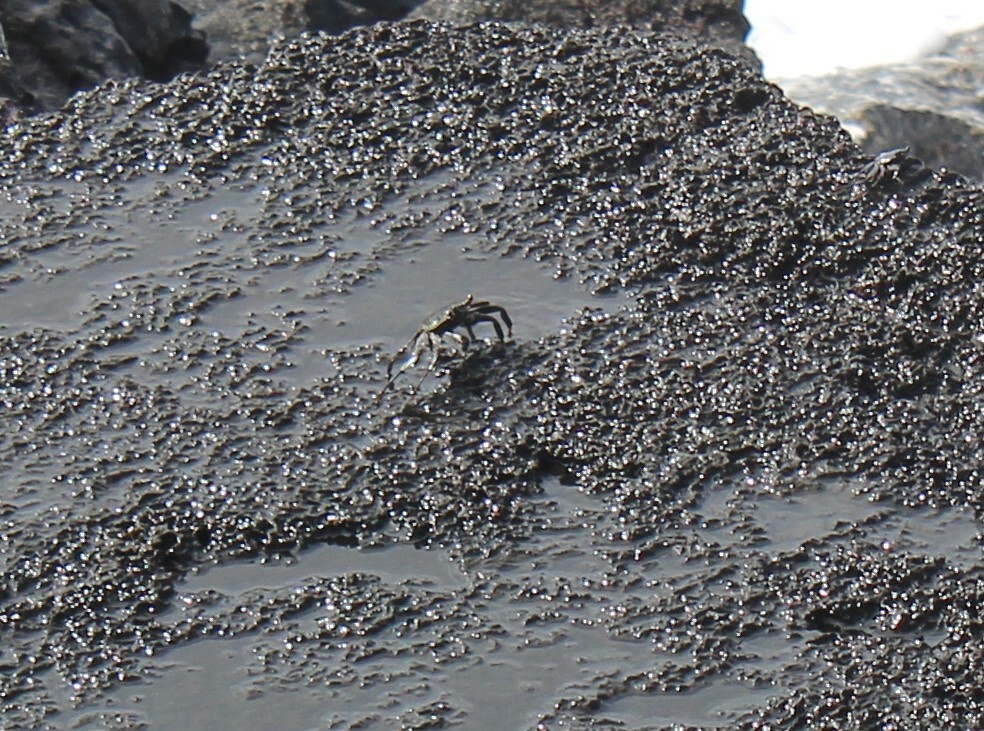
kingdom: Animalia
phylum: Arthropoda
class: Malacostraca
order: Decapoda
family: Grapsidae
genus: Grapsus
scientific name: Grapsus tenuicrustatus
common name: Natal lightfoot crab
